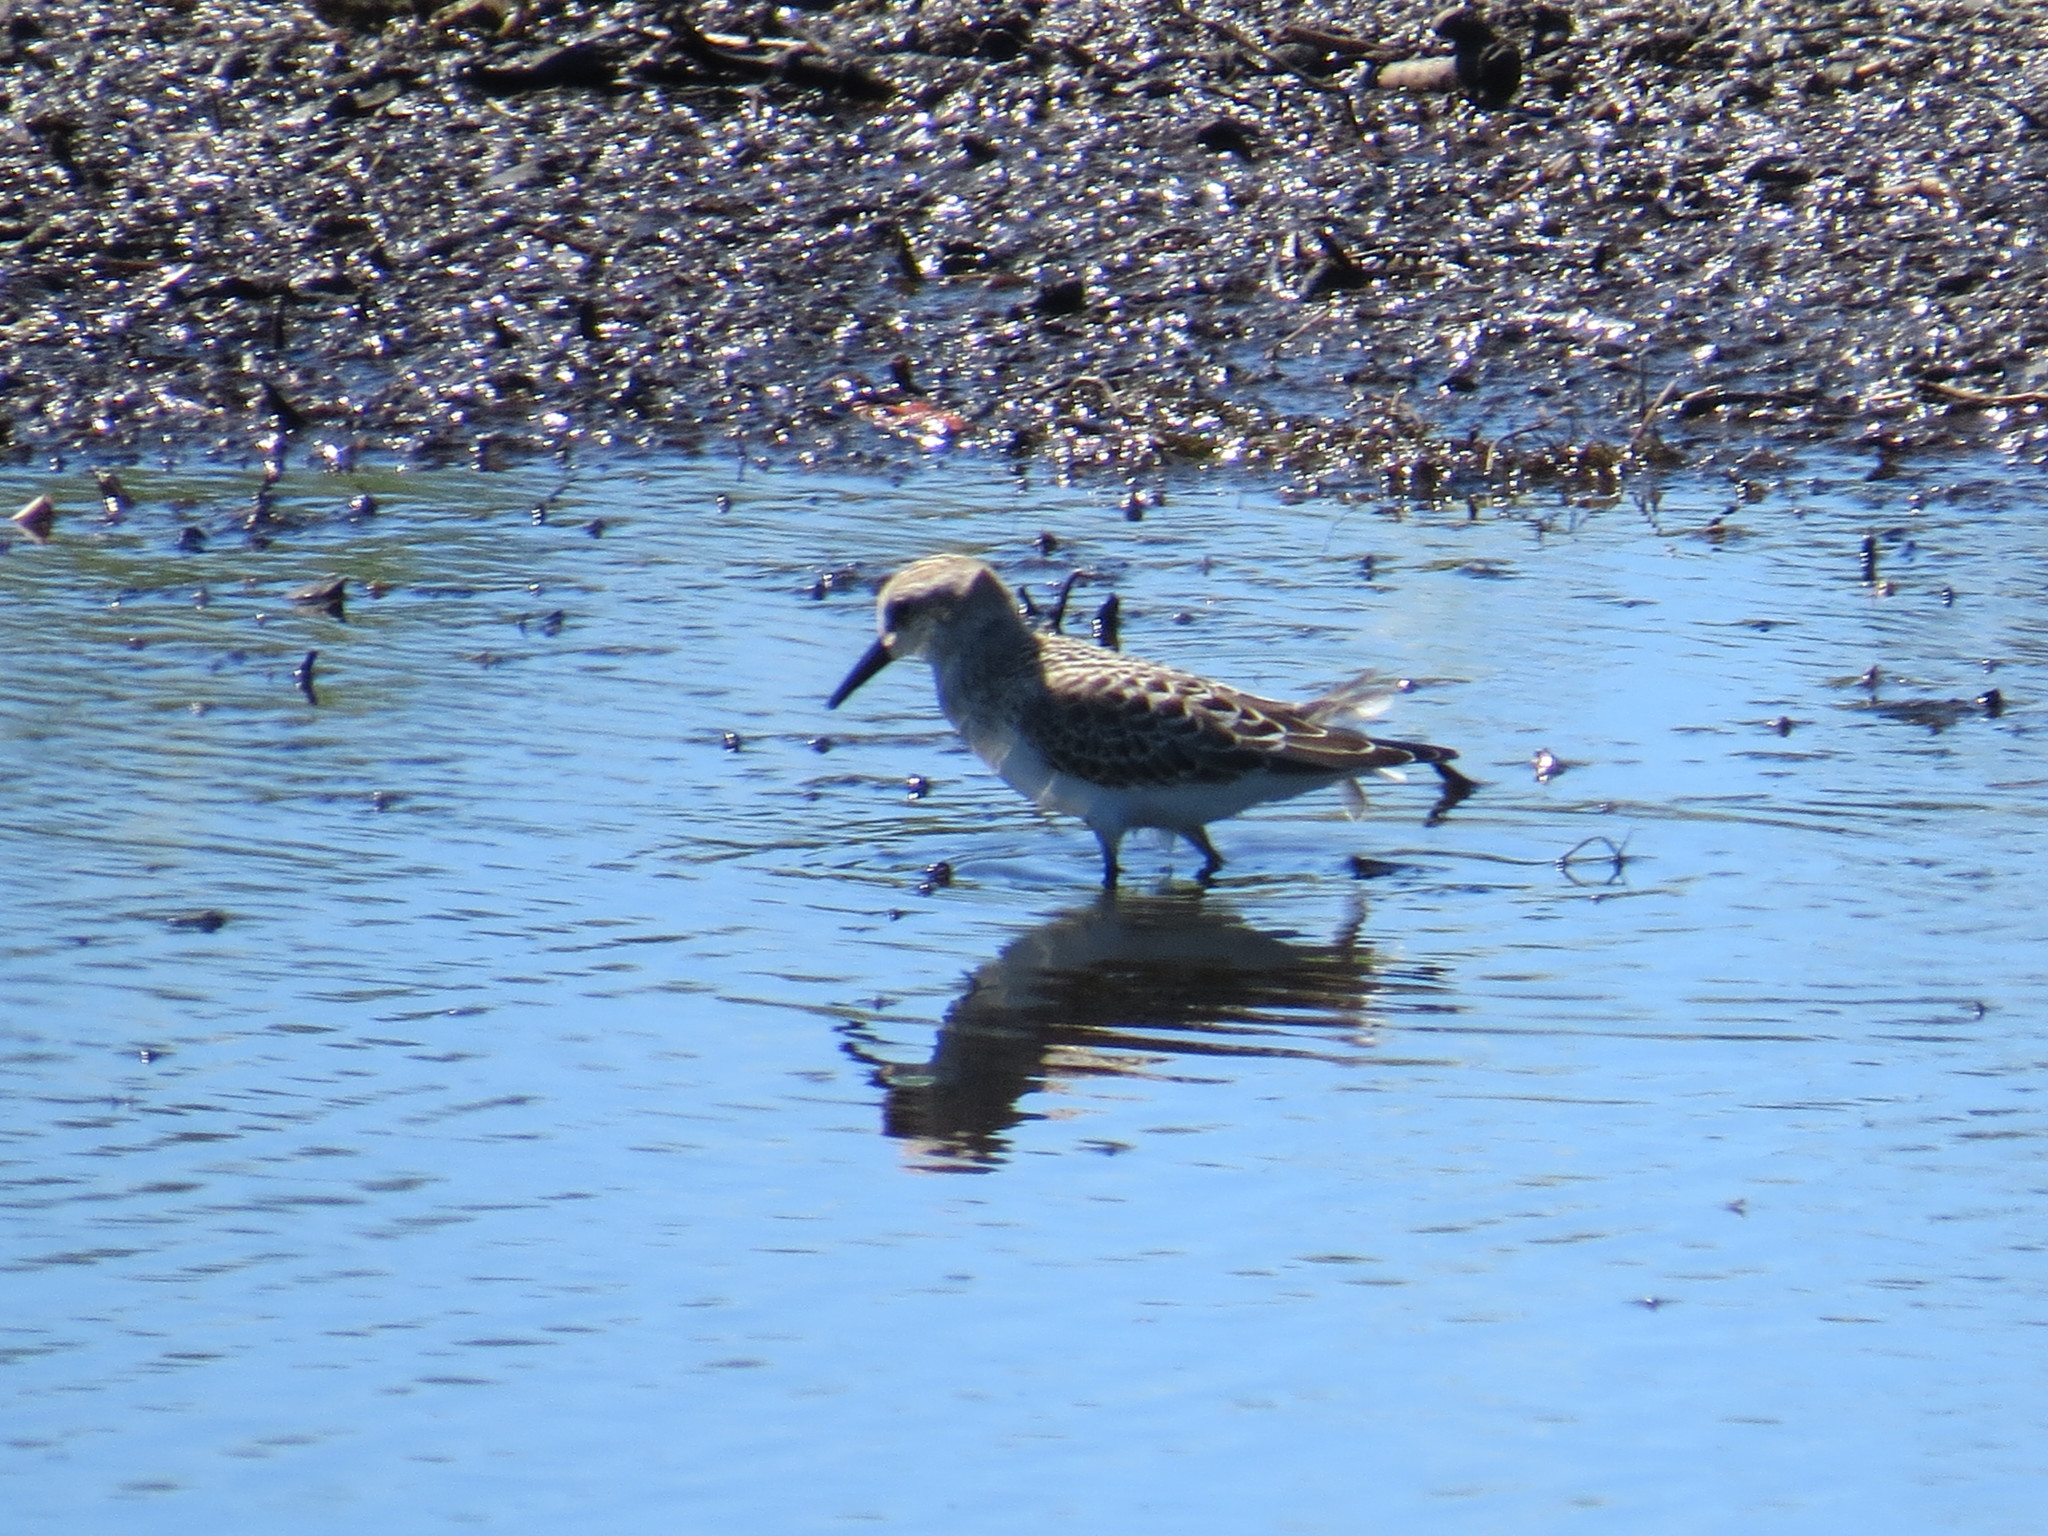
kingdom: Animalia
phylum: Chordata
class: Aves
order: Charadriiformes
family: Scolopacidae
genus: Calidris
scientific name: Calidris pusilla
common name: Semipalmated sandpiper
